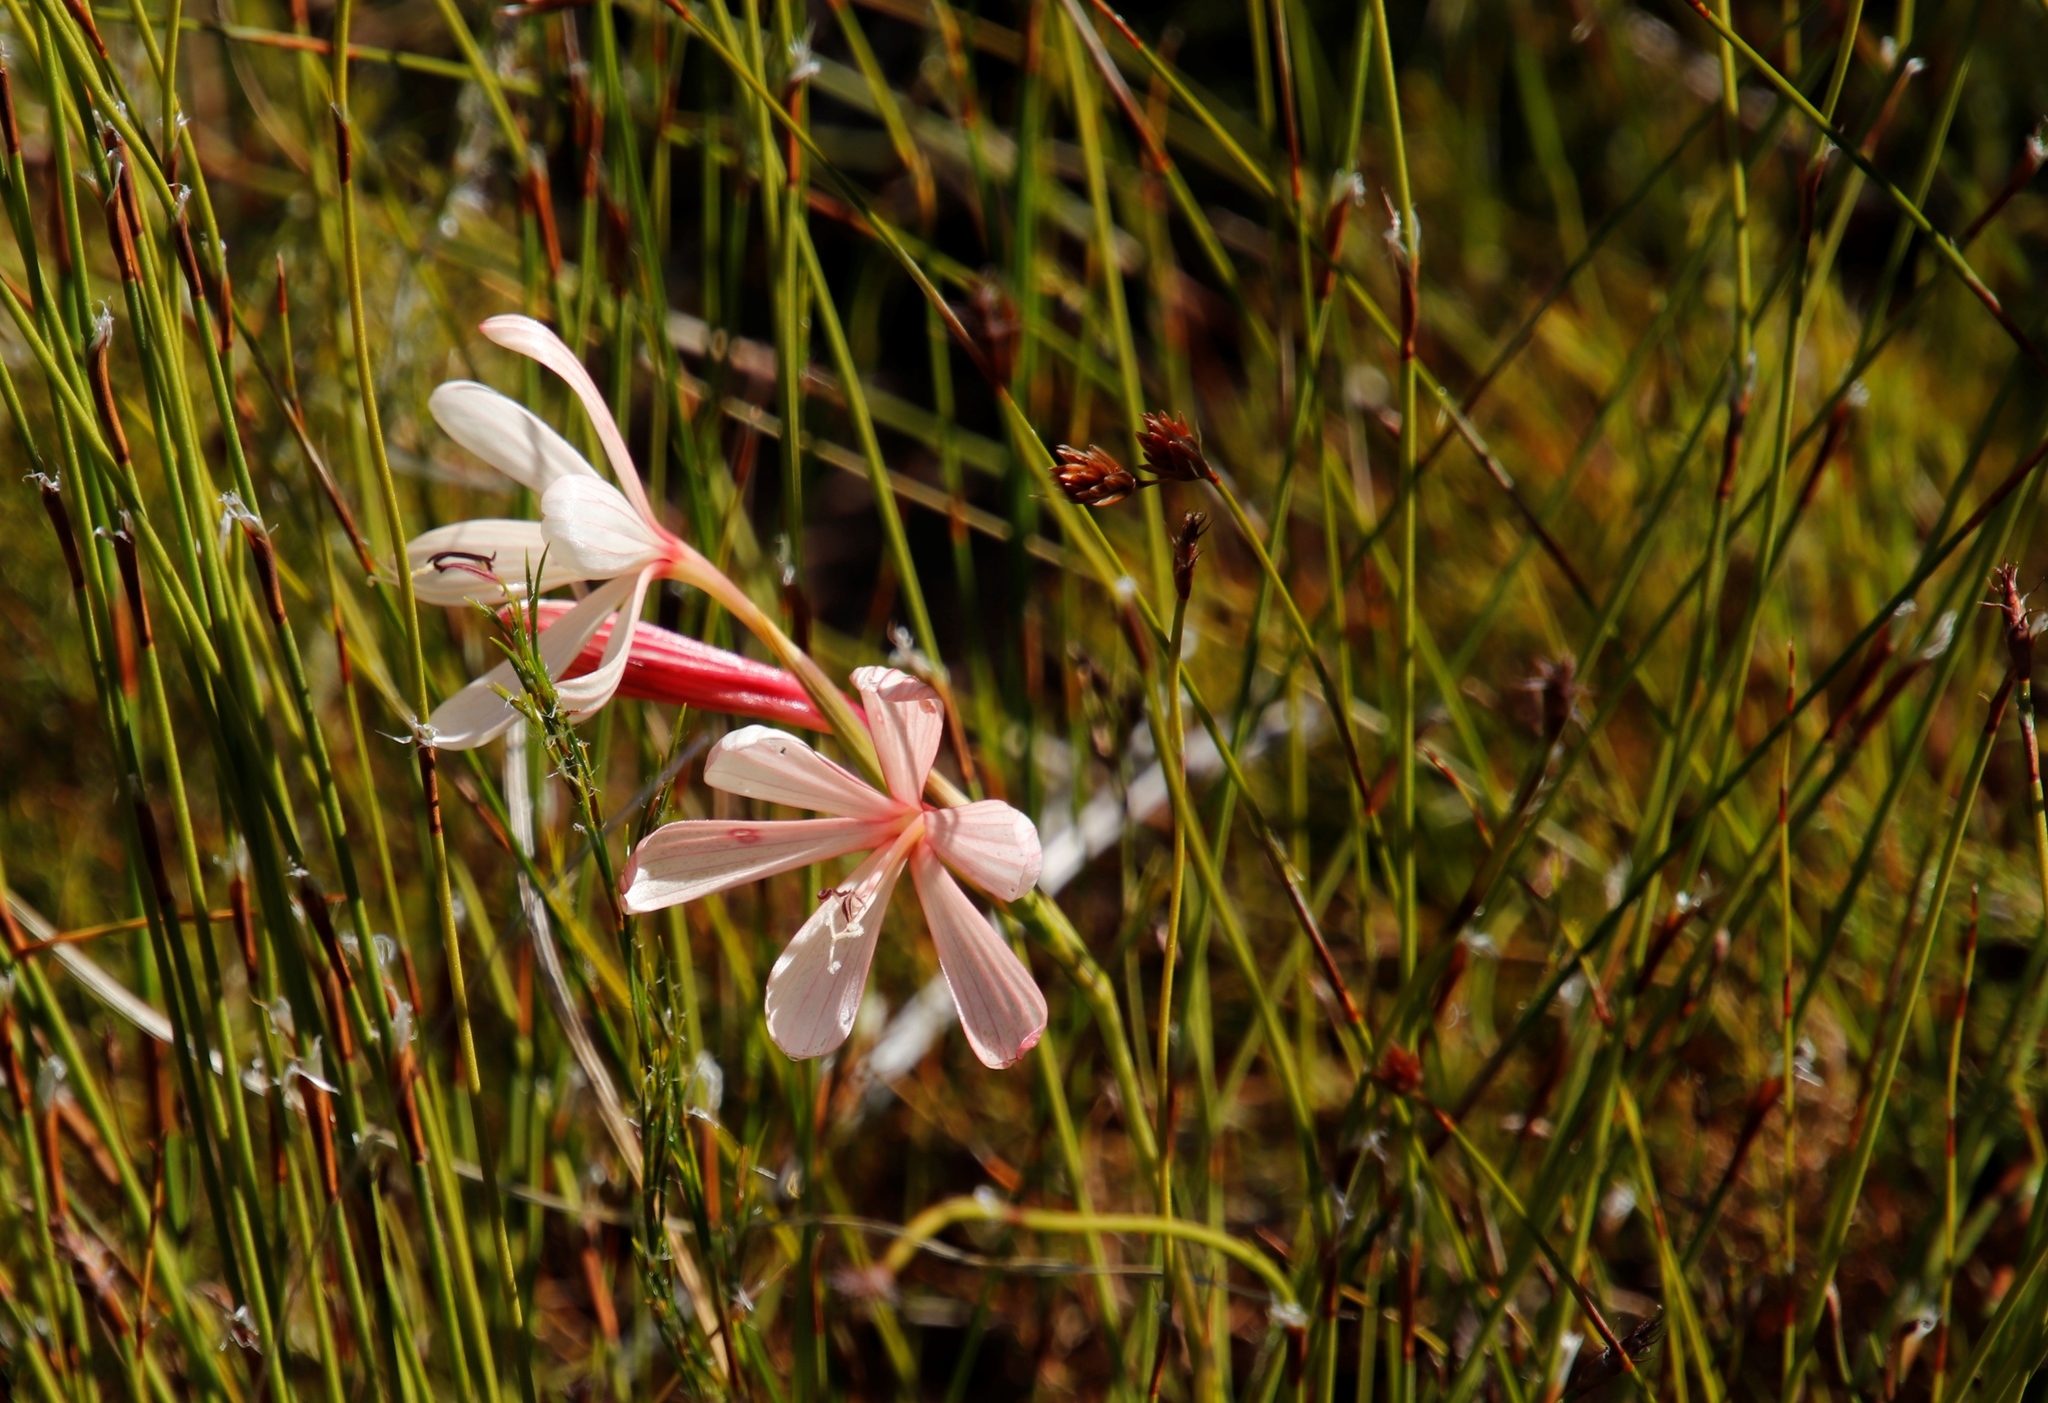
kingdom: Plantae
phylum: Tracheophyta
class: Liliopsida
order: Asparagales
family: Iridaceae
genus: Geissorhiza
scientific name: Geissorhiza confusa
